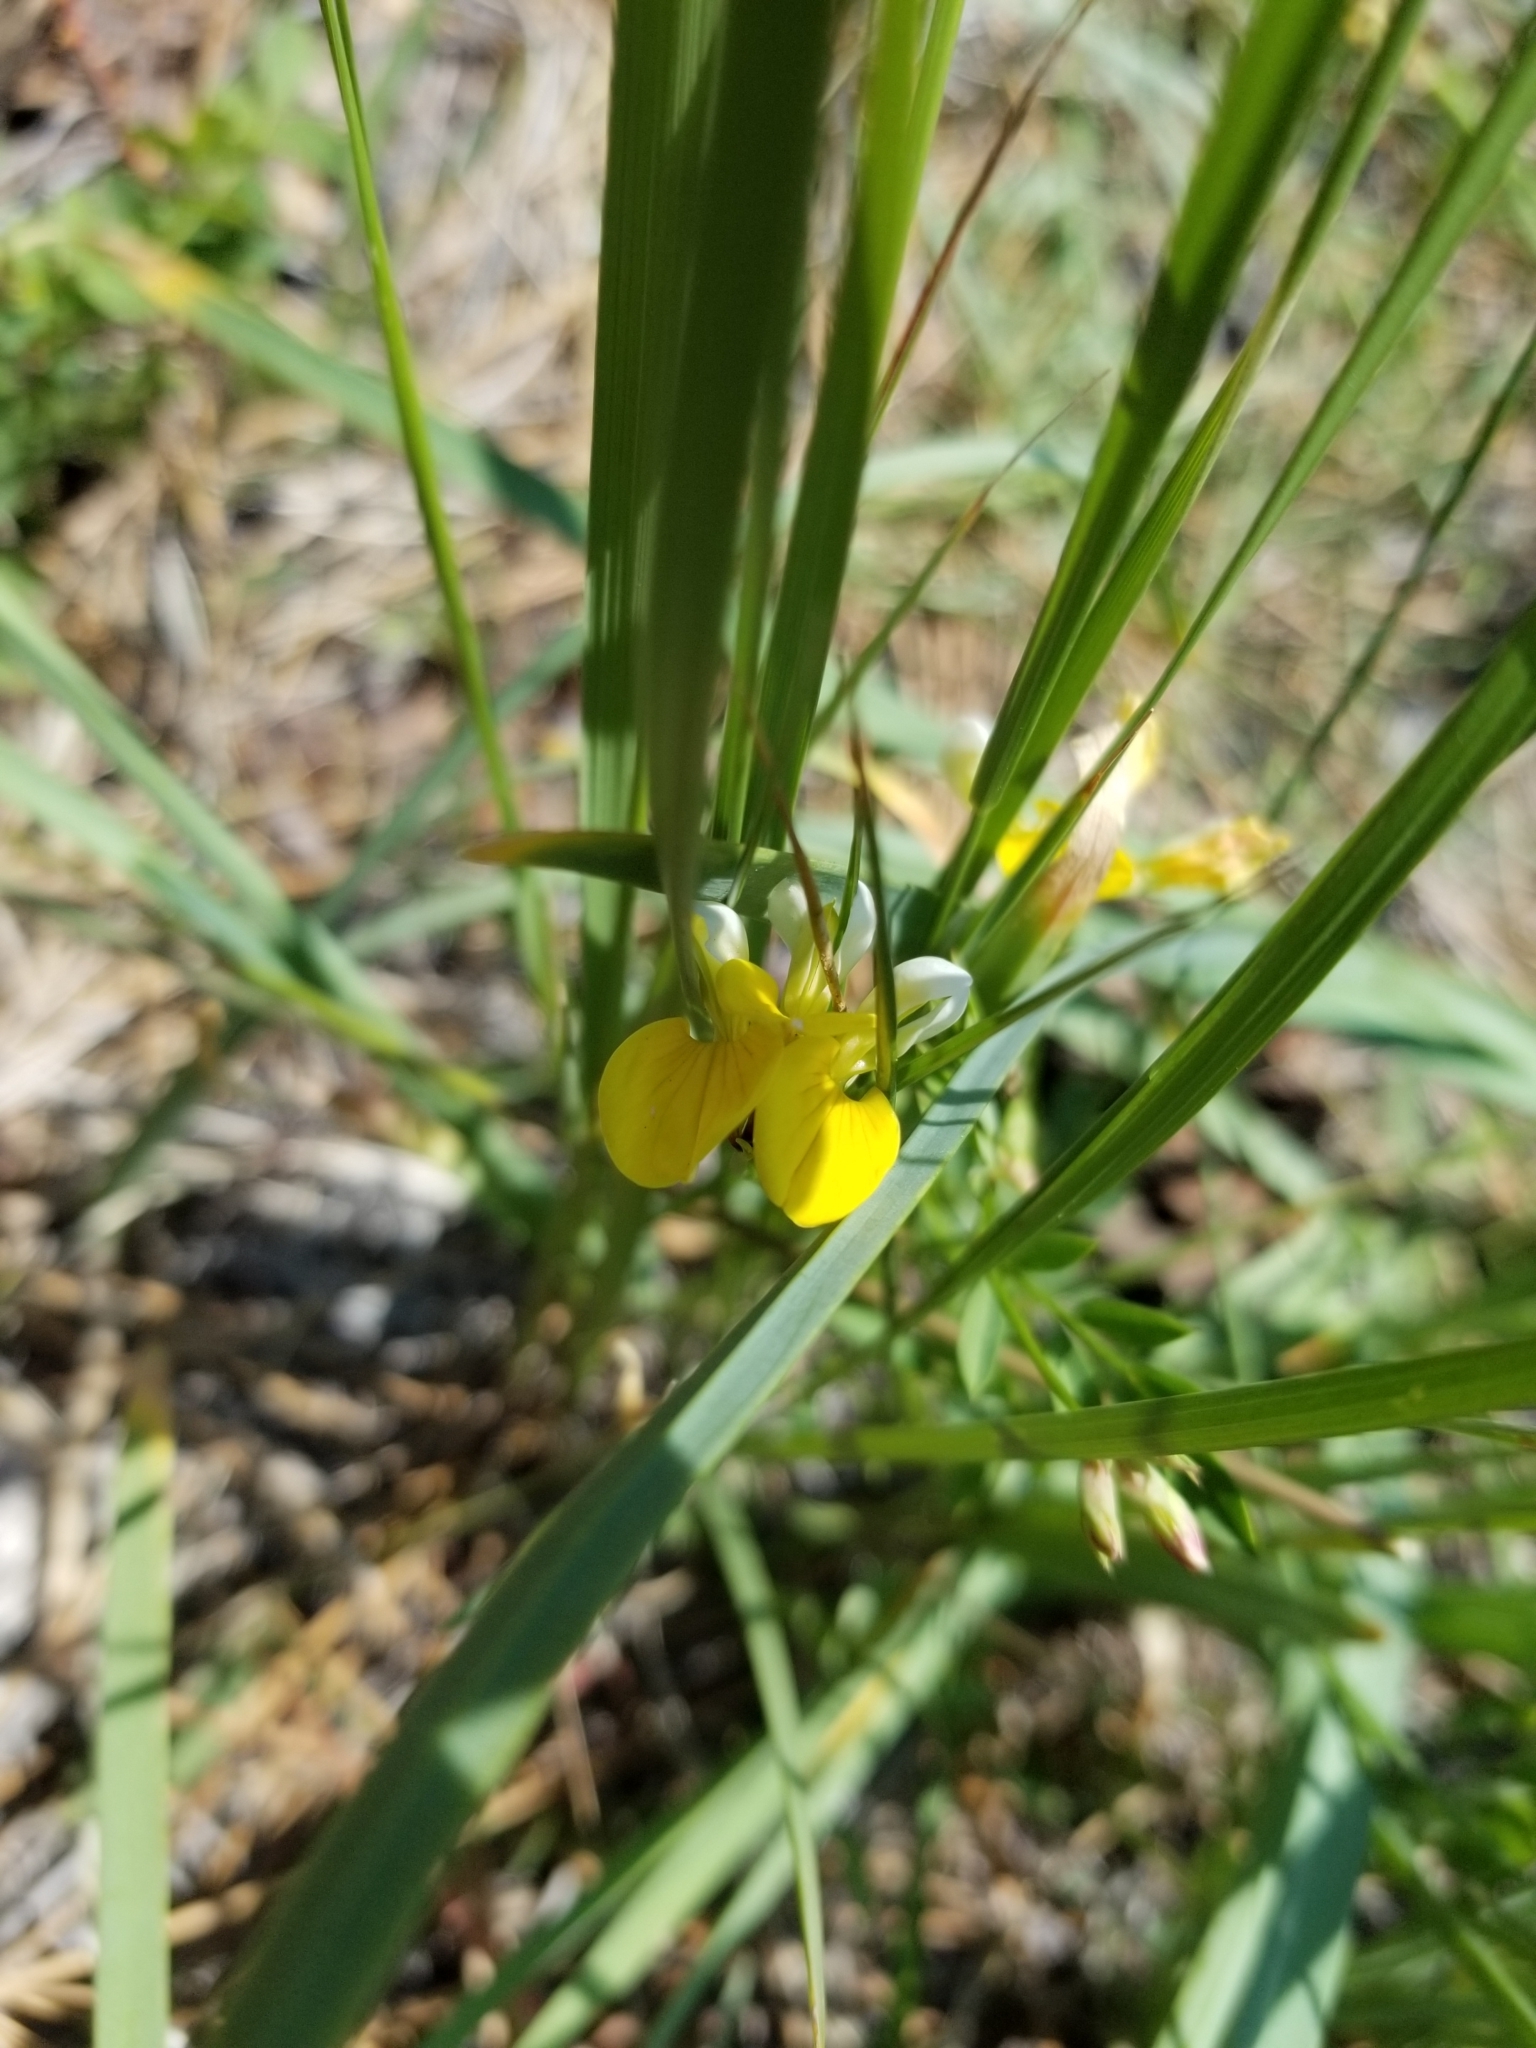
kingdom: Plantae
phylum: Tracheophyta
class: Magnoliopsida
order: Fabales
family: Fabaceae
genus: Hosackia
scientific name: Hosackia oblongifolia
